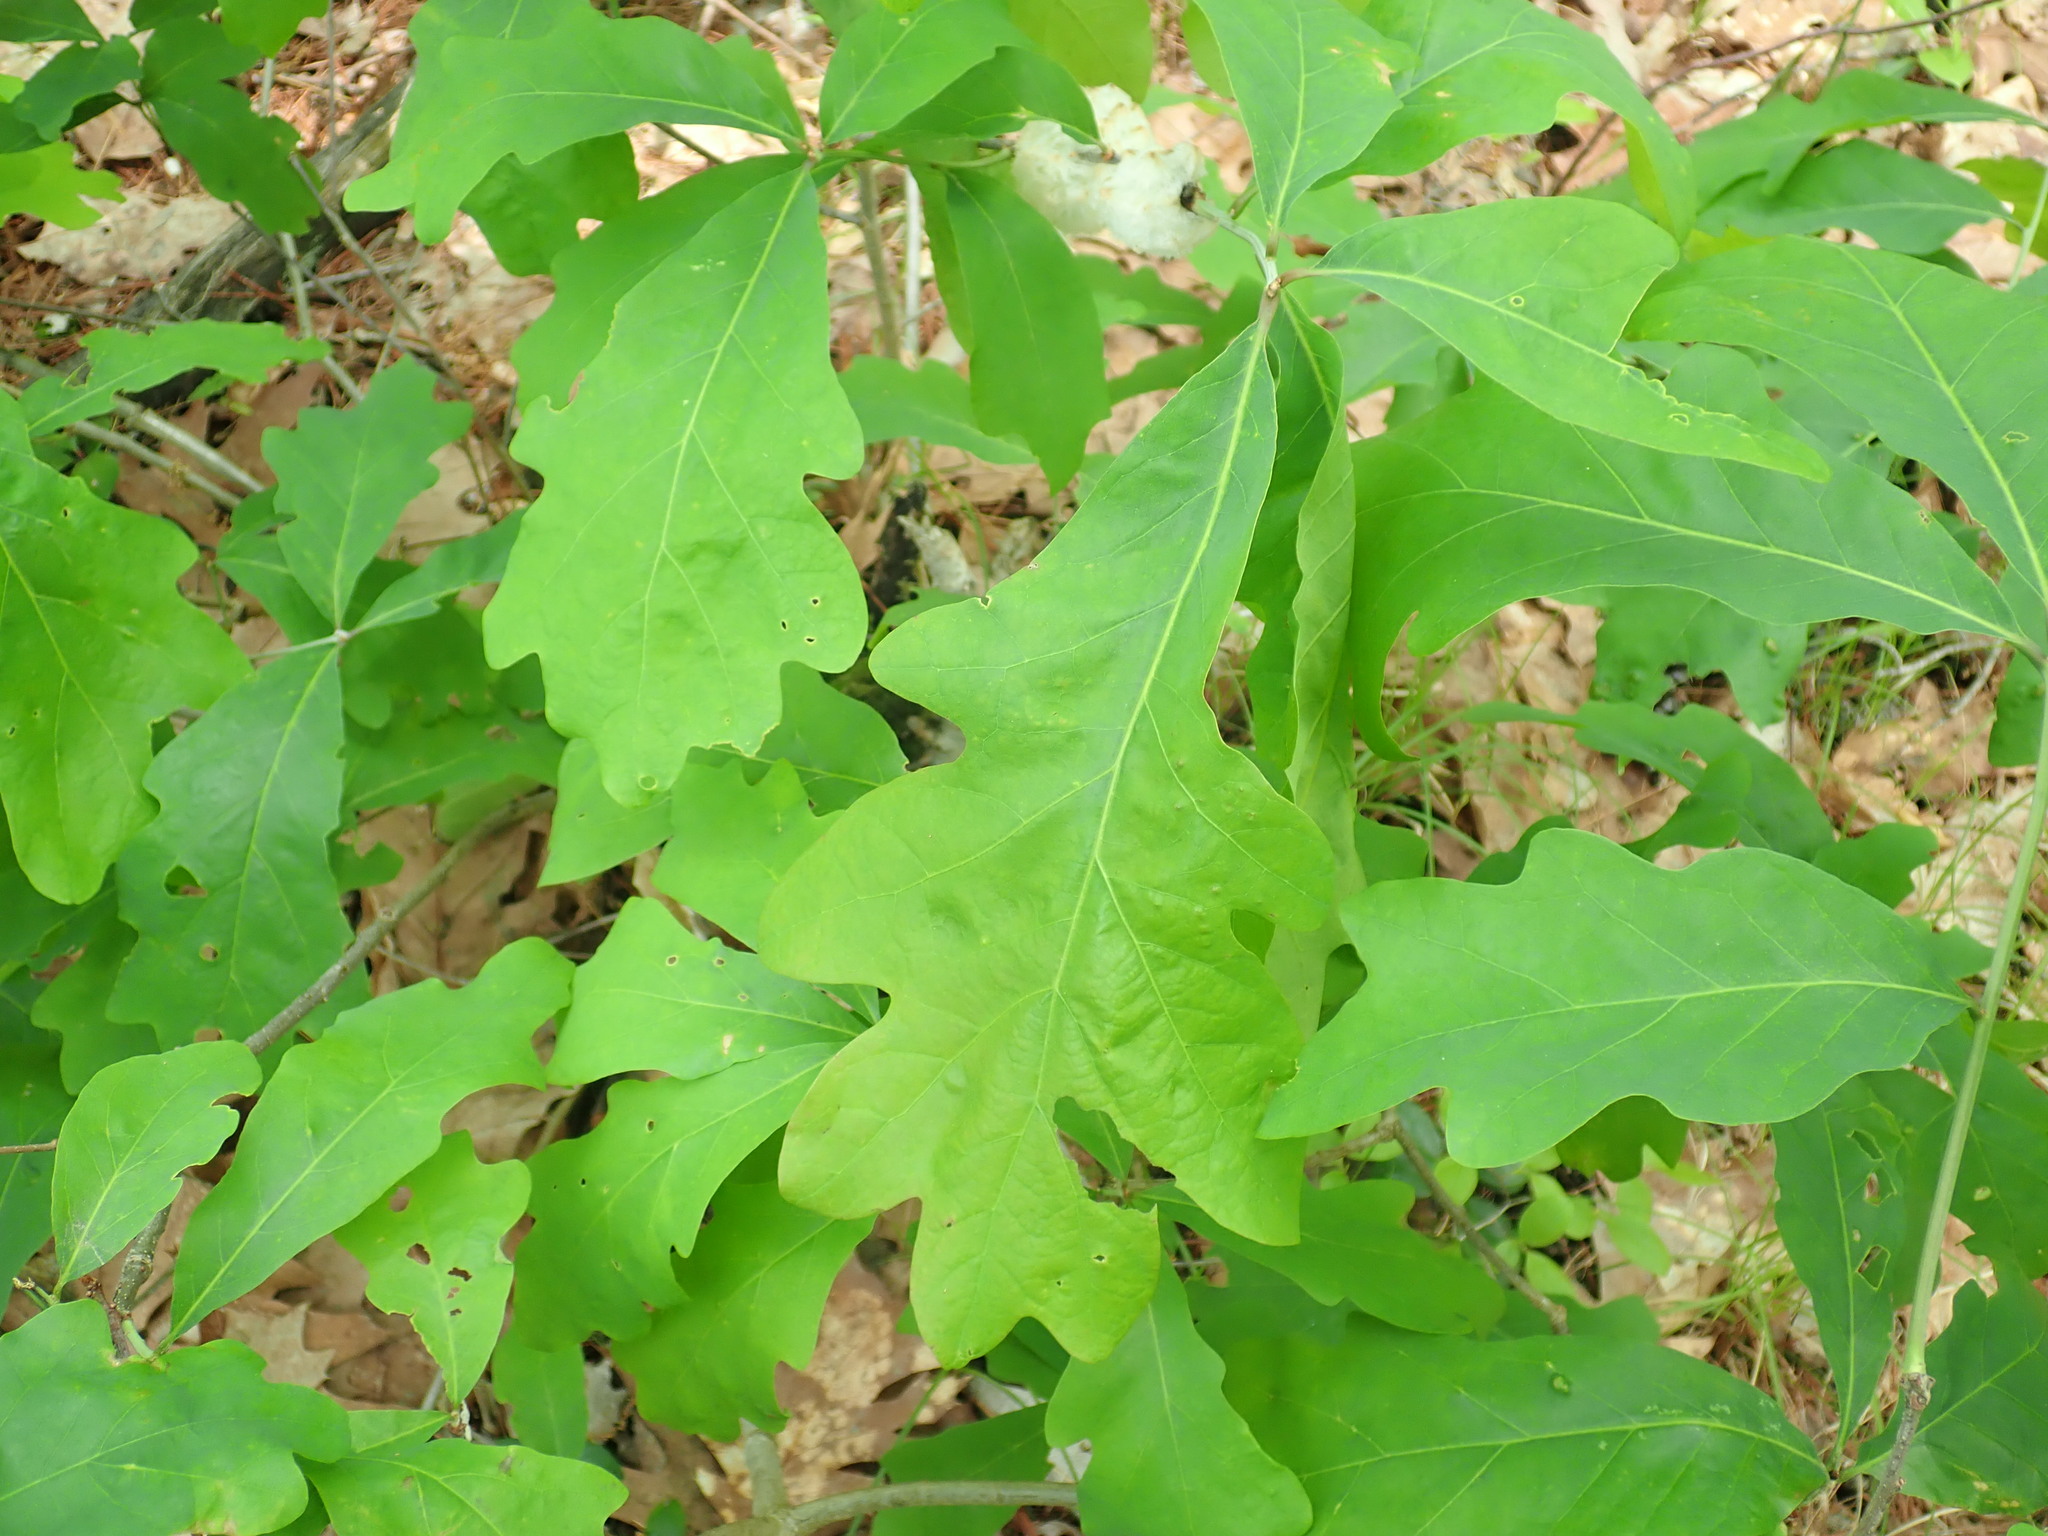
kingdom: Plantae
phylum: Tracheophyta
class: Magnoliopsida
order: Fagales
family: Fagaceae
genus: Quercus
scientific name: Quercus alba
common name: White oak
